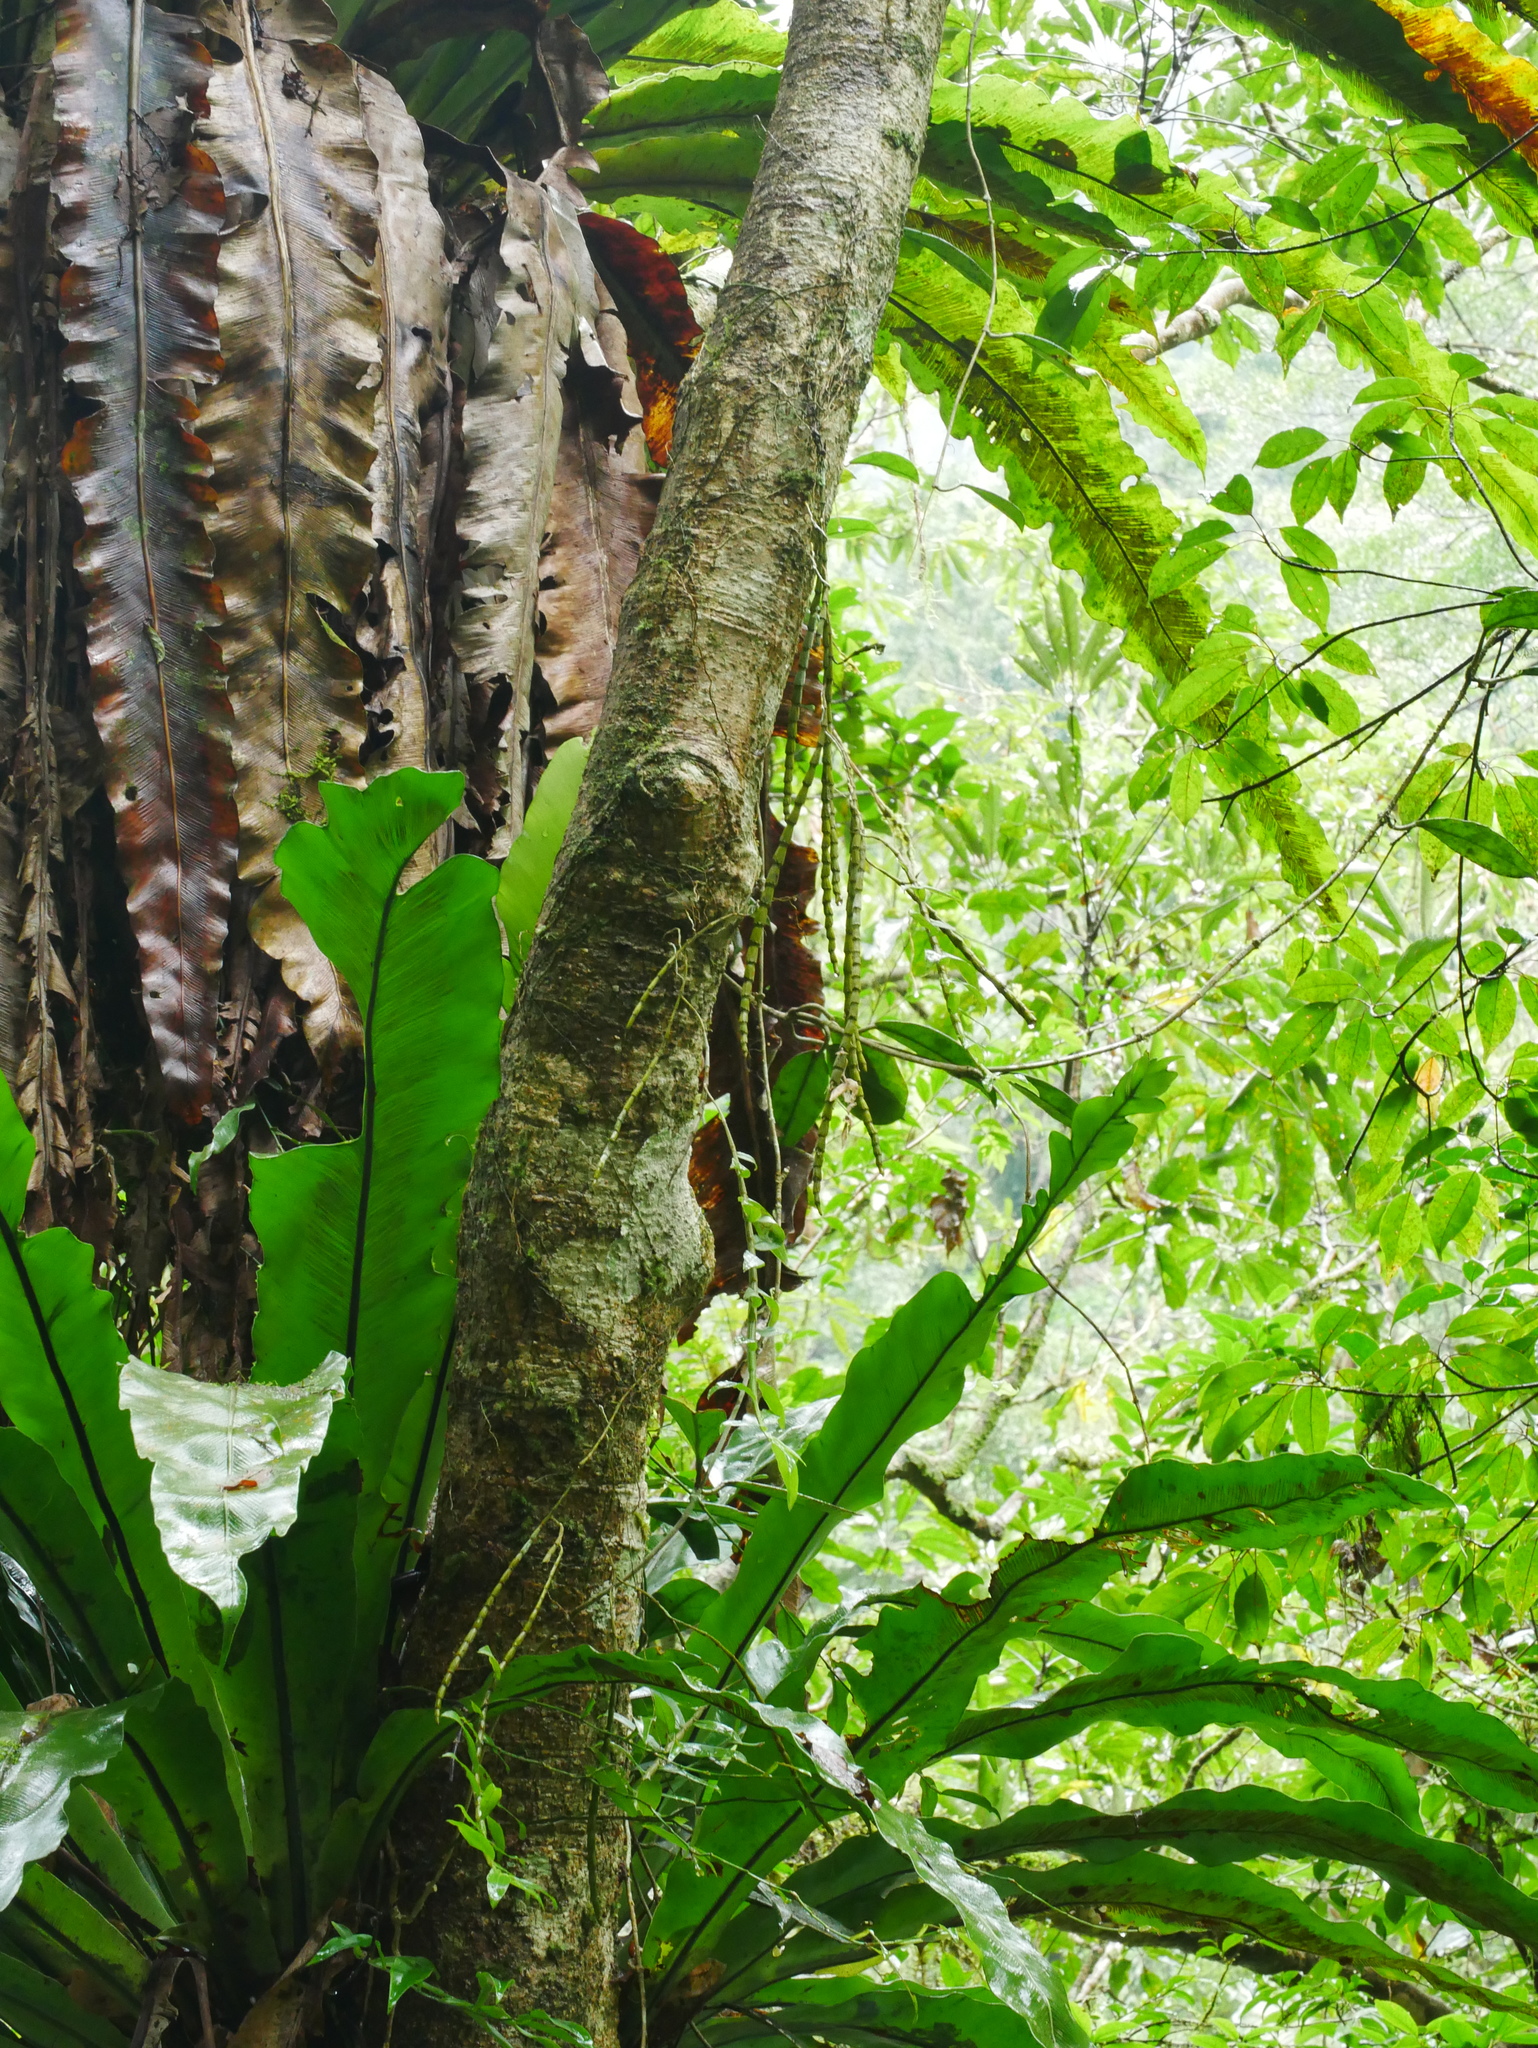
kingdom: Plantae
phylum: Tracheophyta
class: Liliopsida
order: Asparagales
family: Orchidaceae
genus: Dendrobium
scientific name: Dendrobium chameleon
